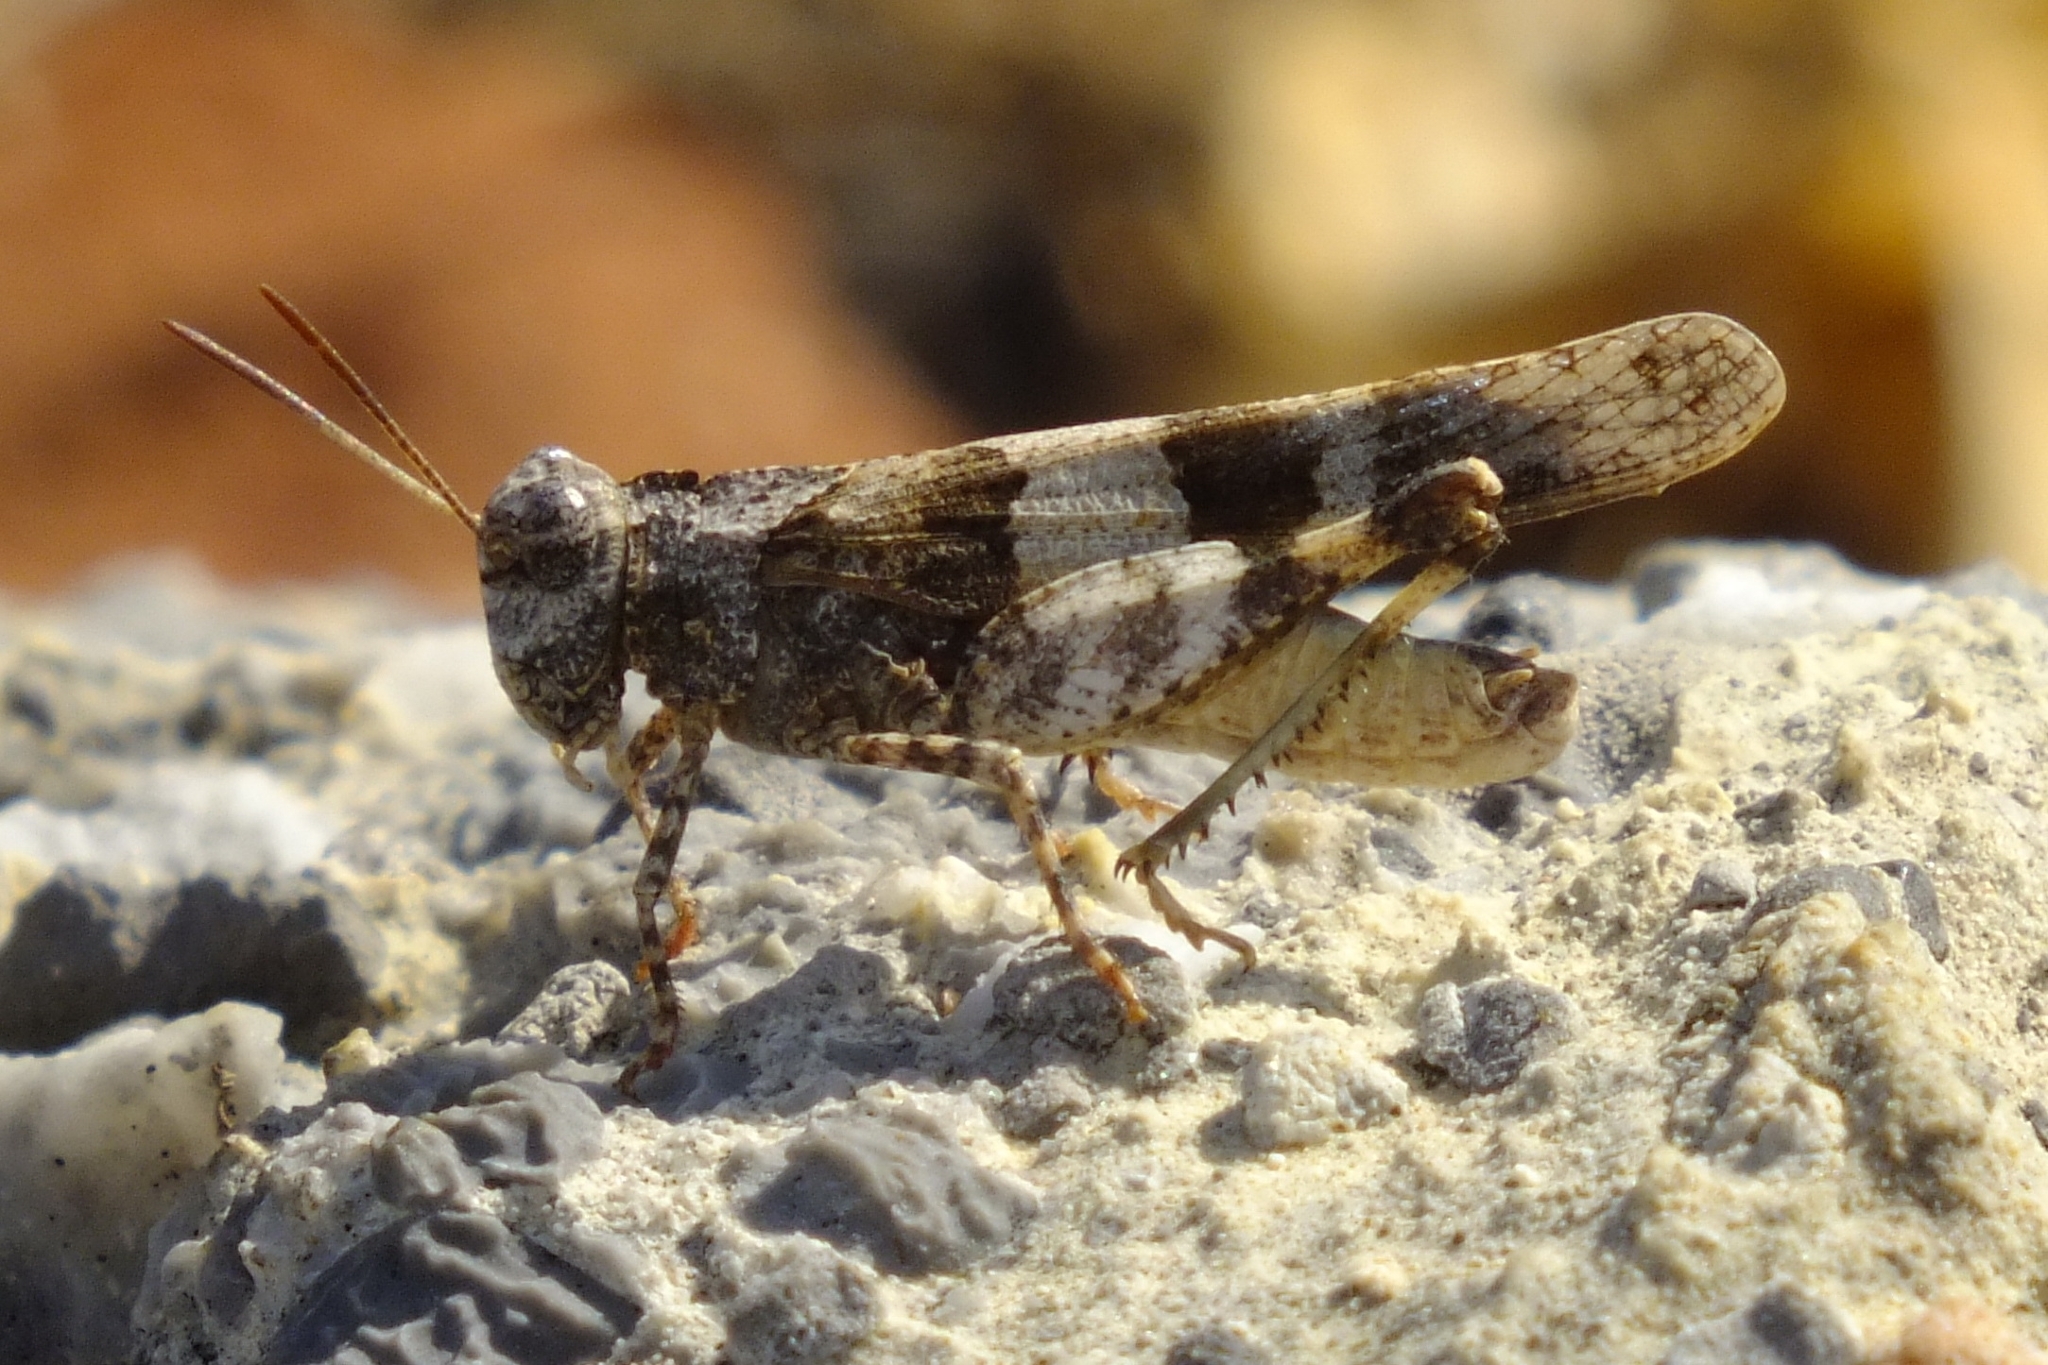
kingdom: Animalia
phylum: Arthropoda
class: Insecta
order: Orthoptera
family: Acrididae
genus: Oedipoda
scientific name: Oedipoda caerulescens
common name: Blue-winged grasshopper
